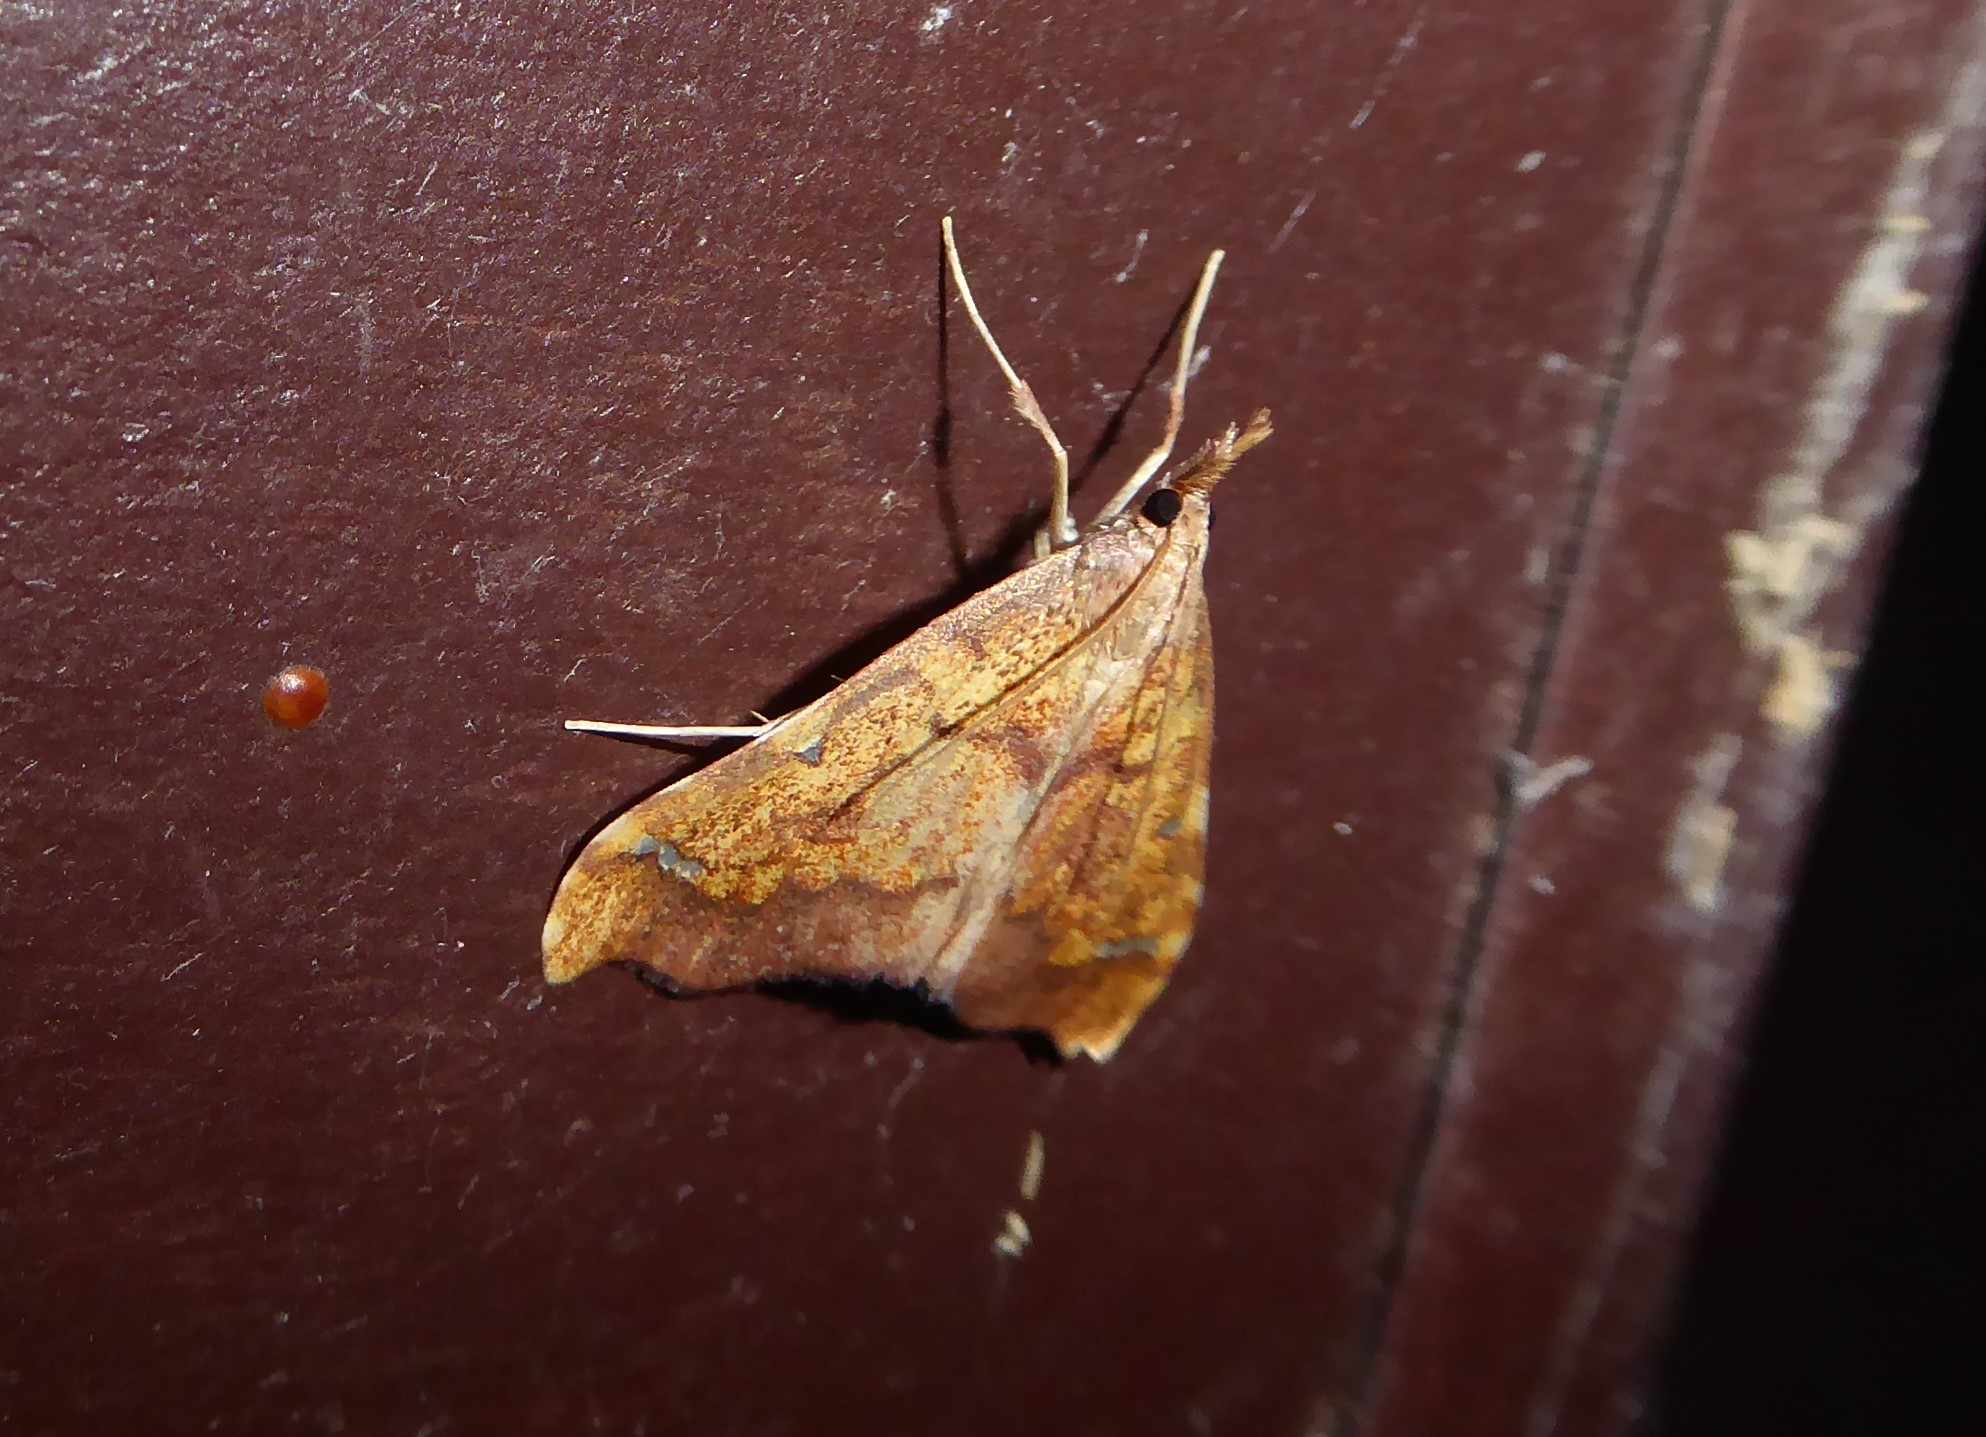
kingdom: Animalia
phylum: Arthropoda
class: Insecta
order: Lepidoptera
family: Crambidae
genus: Deana
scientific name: Deana hybreasalis
